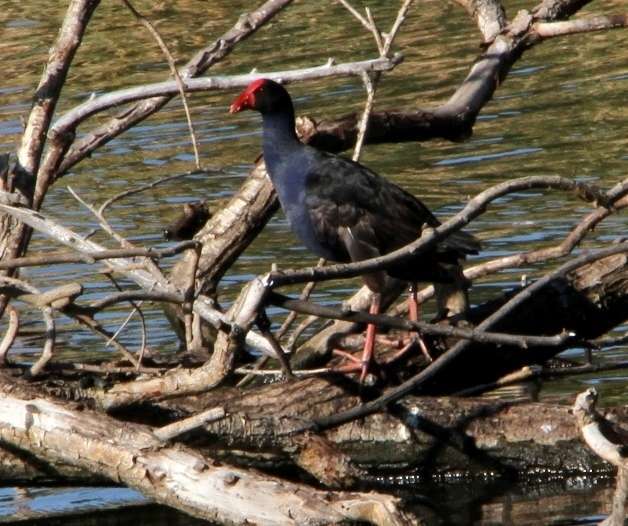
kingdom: Animalia
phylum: Chordata
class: Aves
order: Gruiformes
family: Rallidae
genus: Porphyrio
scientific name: Porphyrio melanotus
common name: Australasian swamphen
